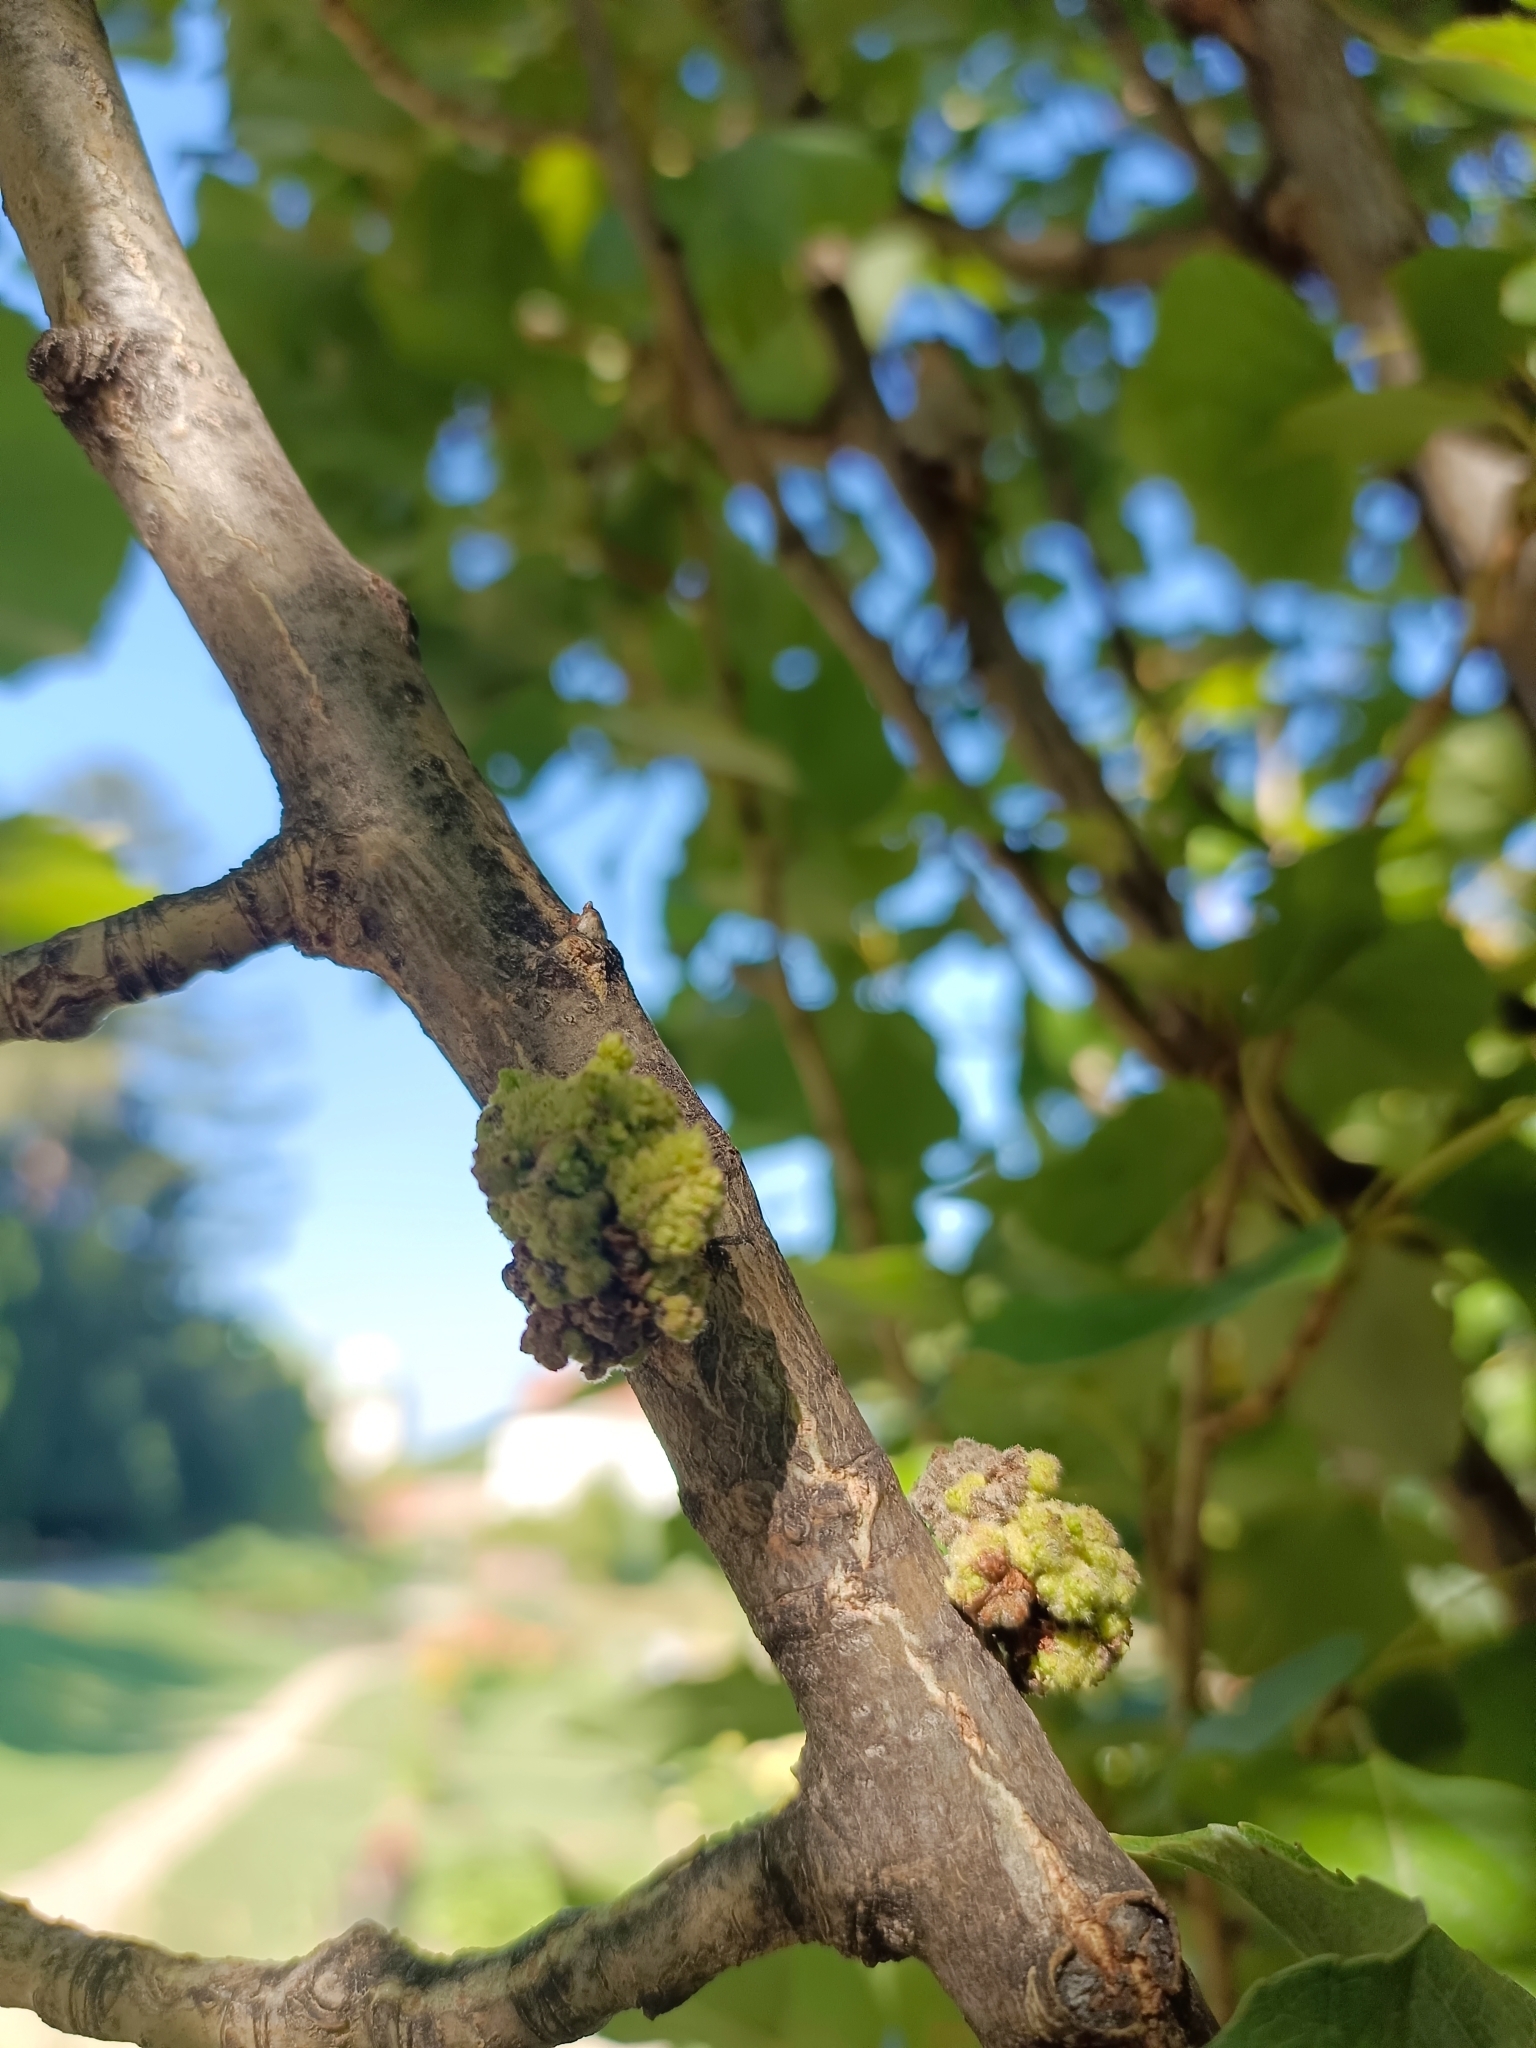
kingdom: Animalia
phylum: Arthropoda
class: Arachnida
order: Trombidiformes
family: Eriophyidae
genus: Aceria
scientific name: Aceria populi
